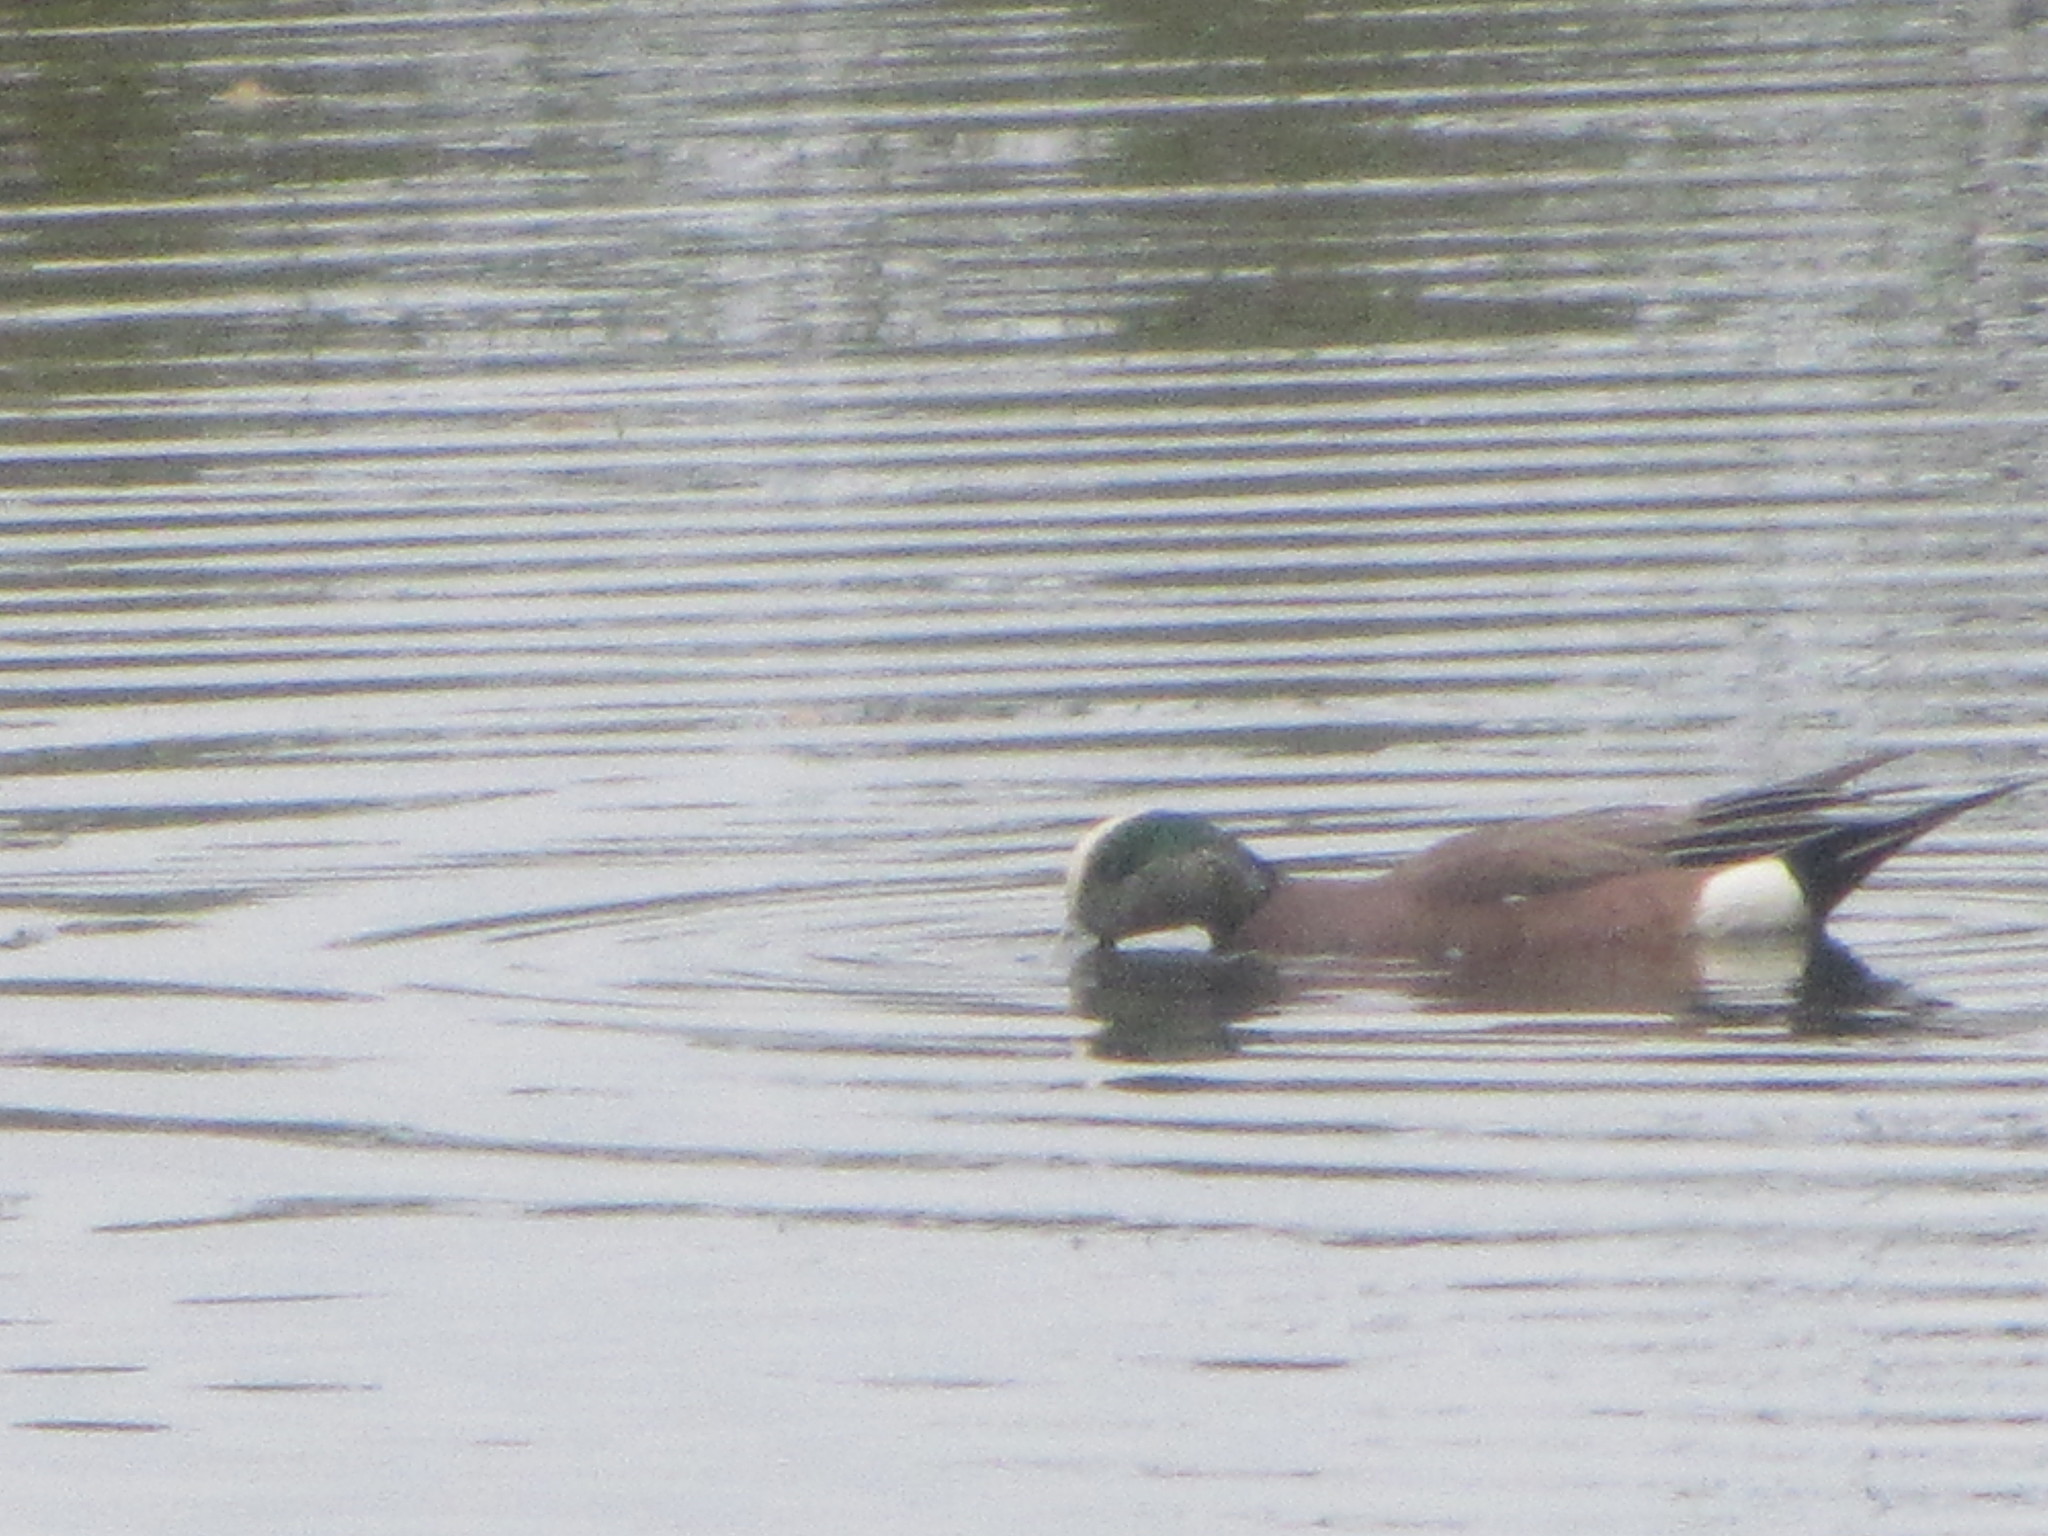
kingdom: Animalia
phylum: Chordata
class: Aves
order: Anseriformes
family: Anatidae
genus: Mareca
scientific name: Mareca americana
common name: American wigeon
